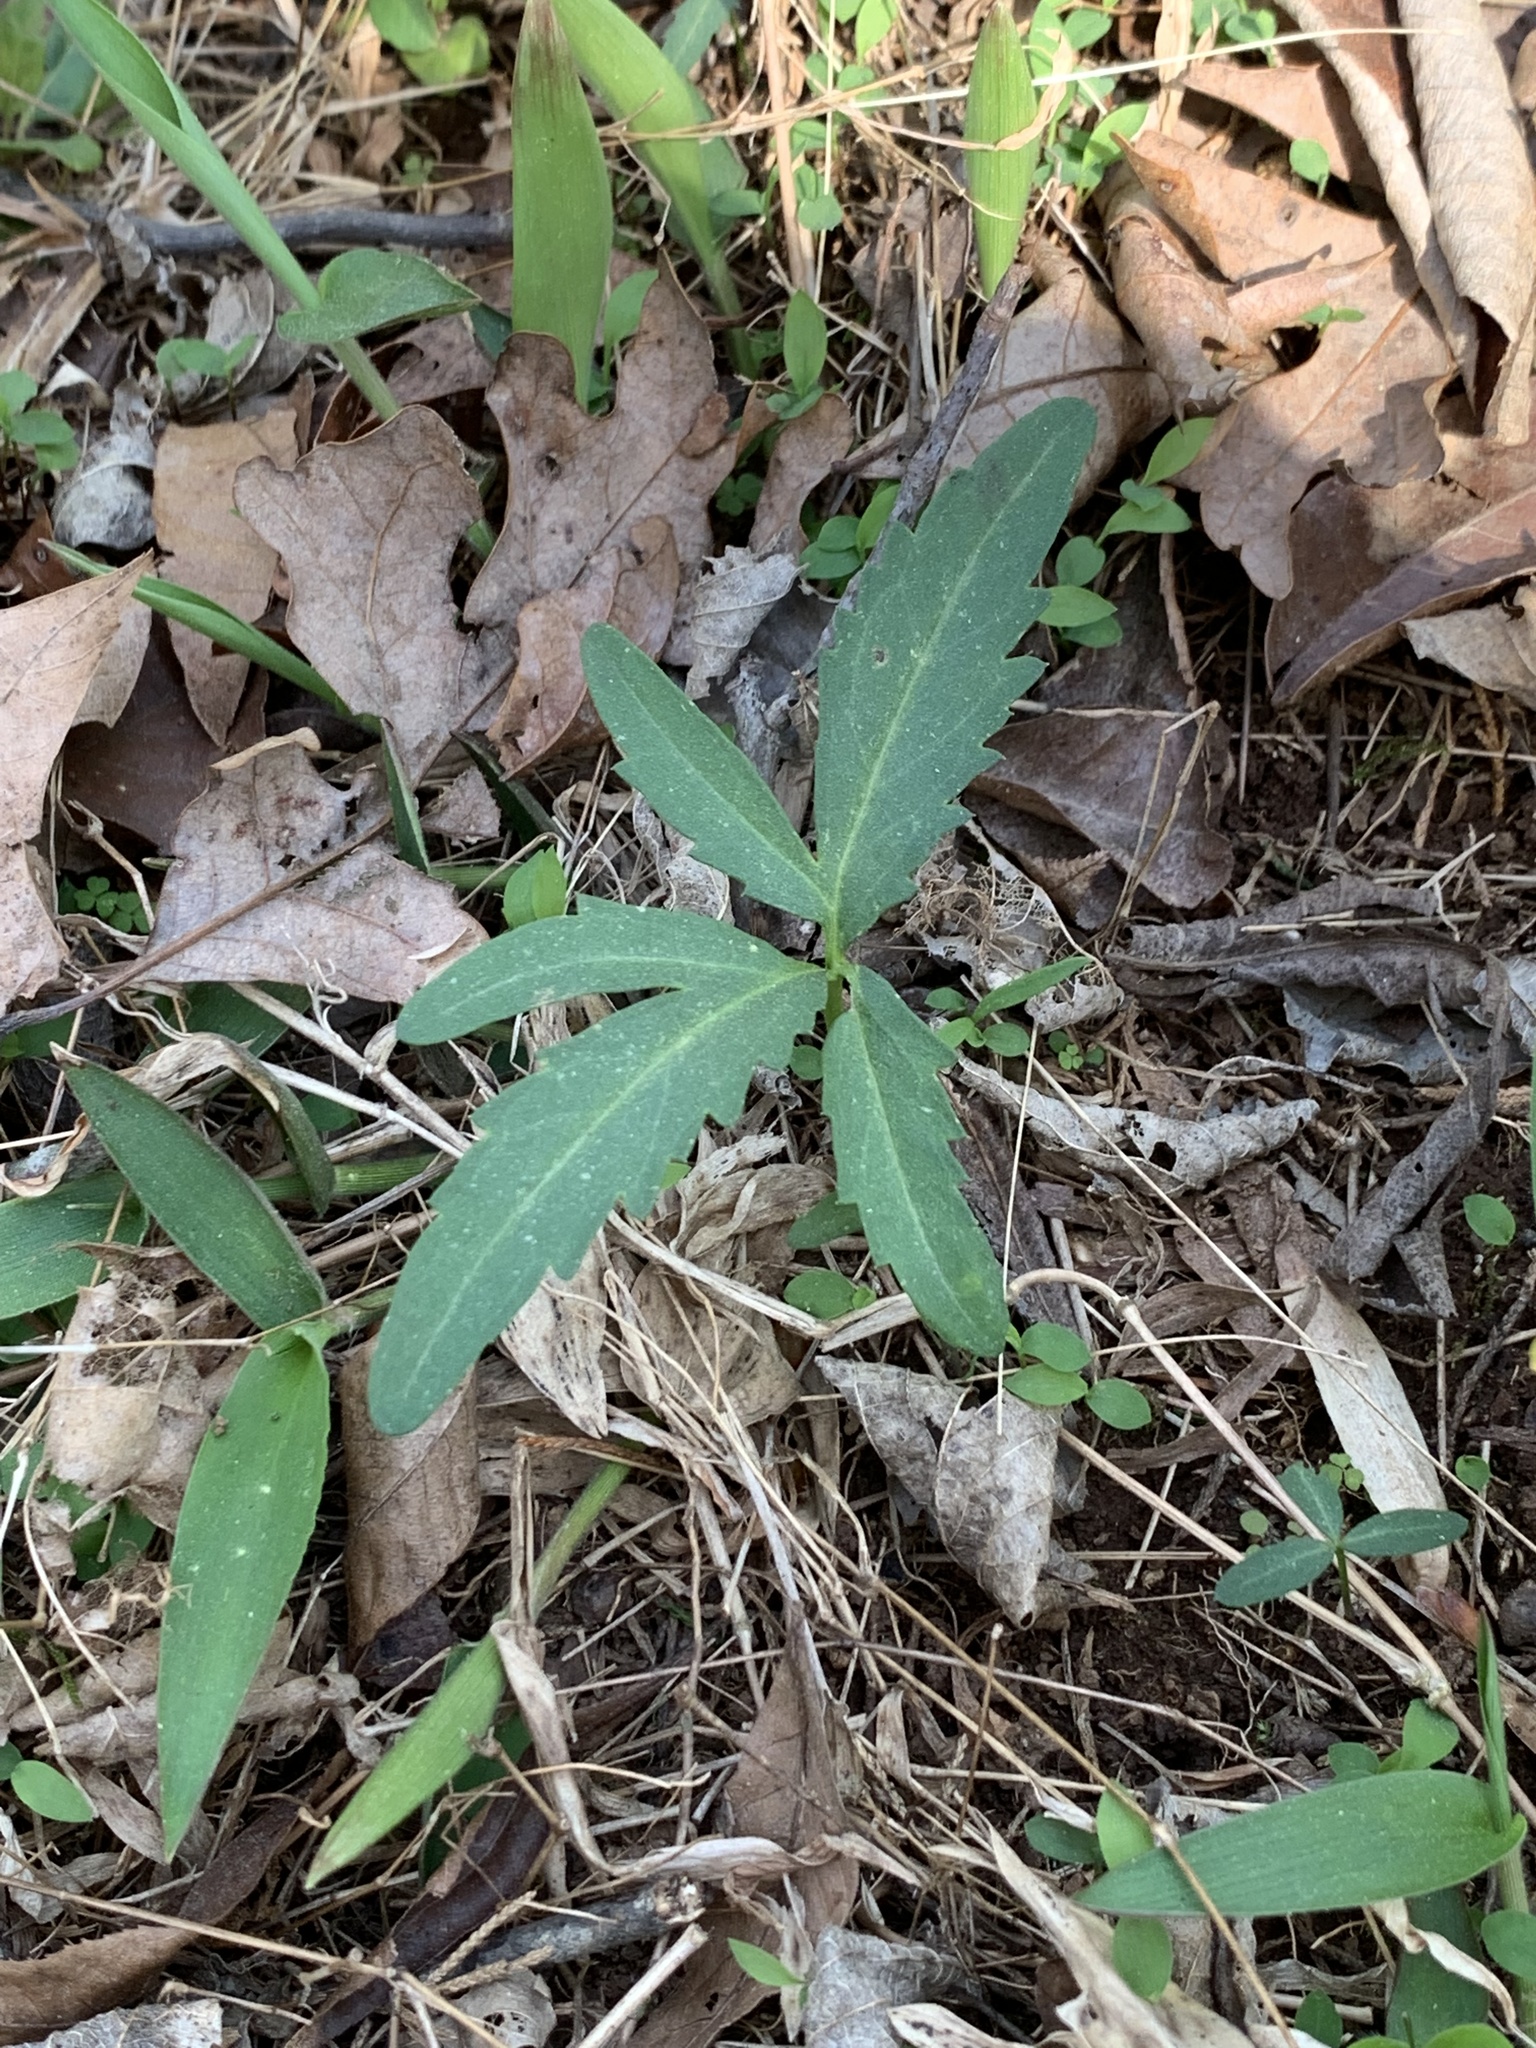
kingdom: Plantae
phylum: Tracheophyta
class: Magnoliopsida
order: Brassicales
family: Brassicaceae
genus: Cardamine
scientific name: Cardamine concatenata
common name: Cut-leaf toothcup
